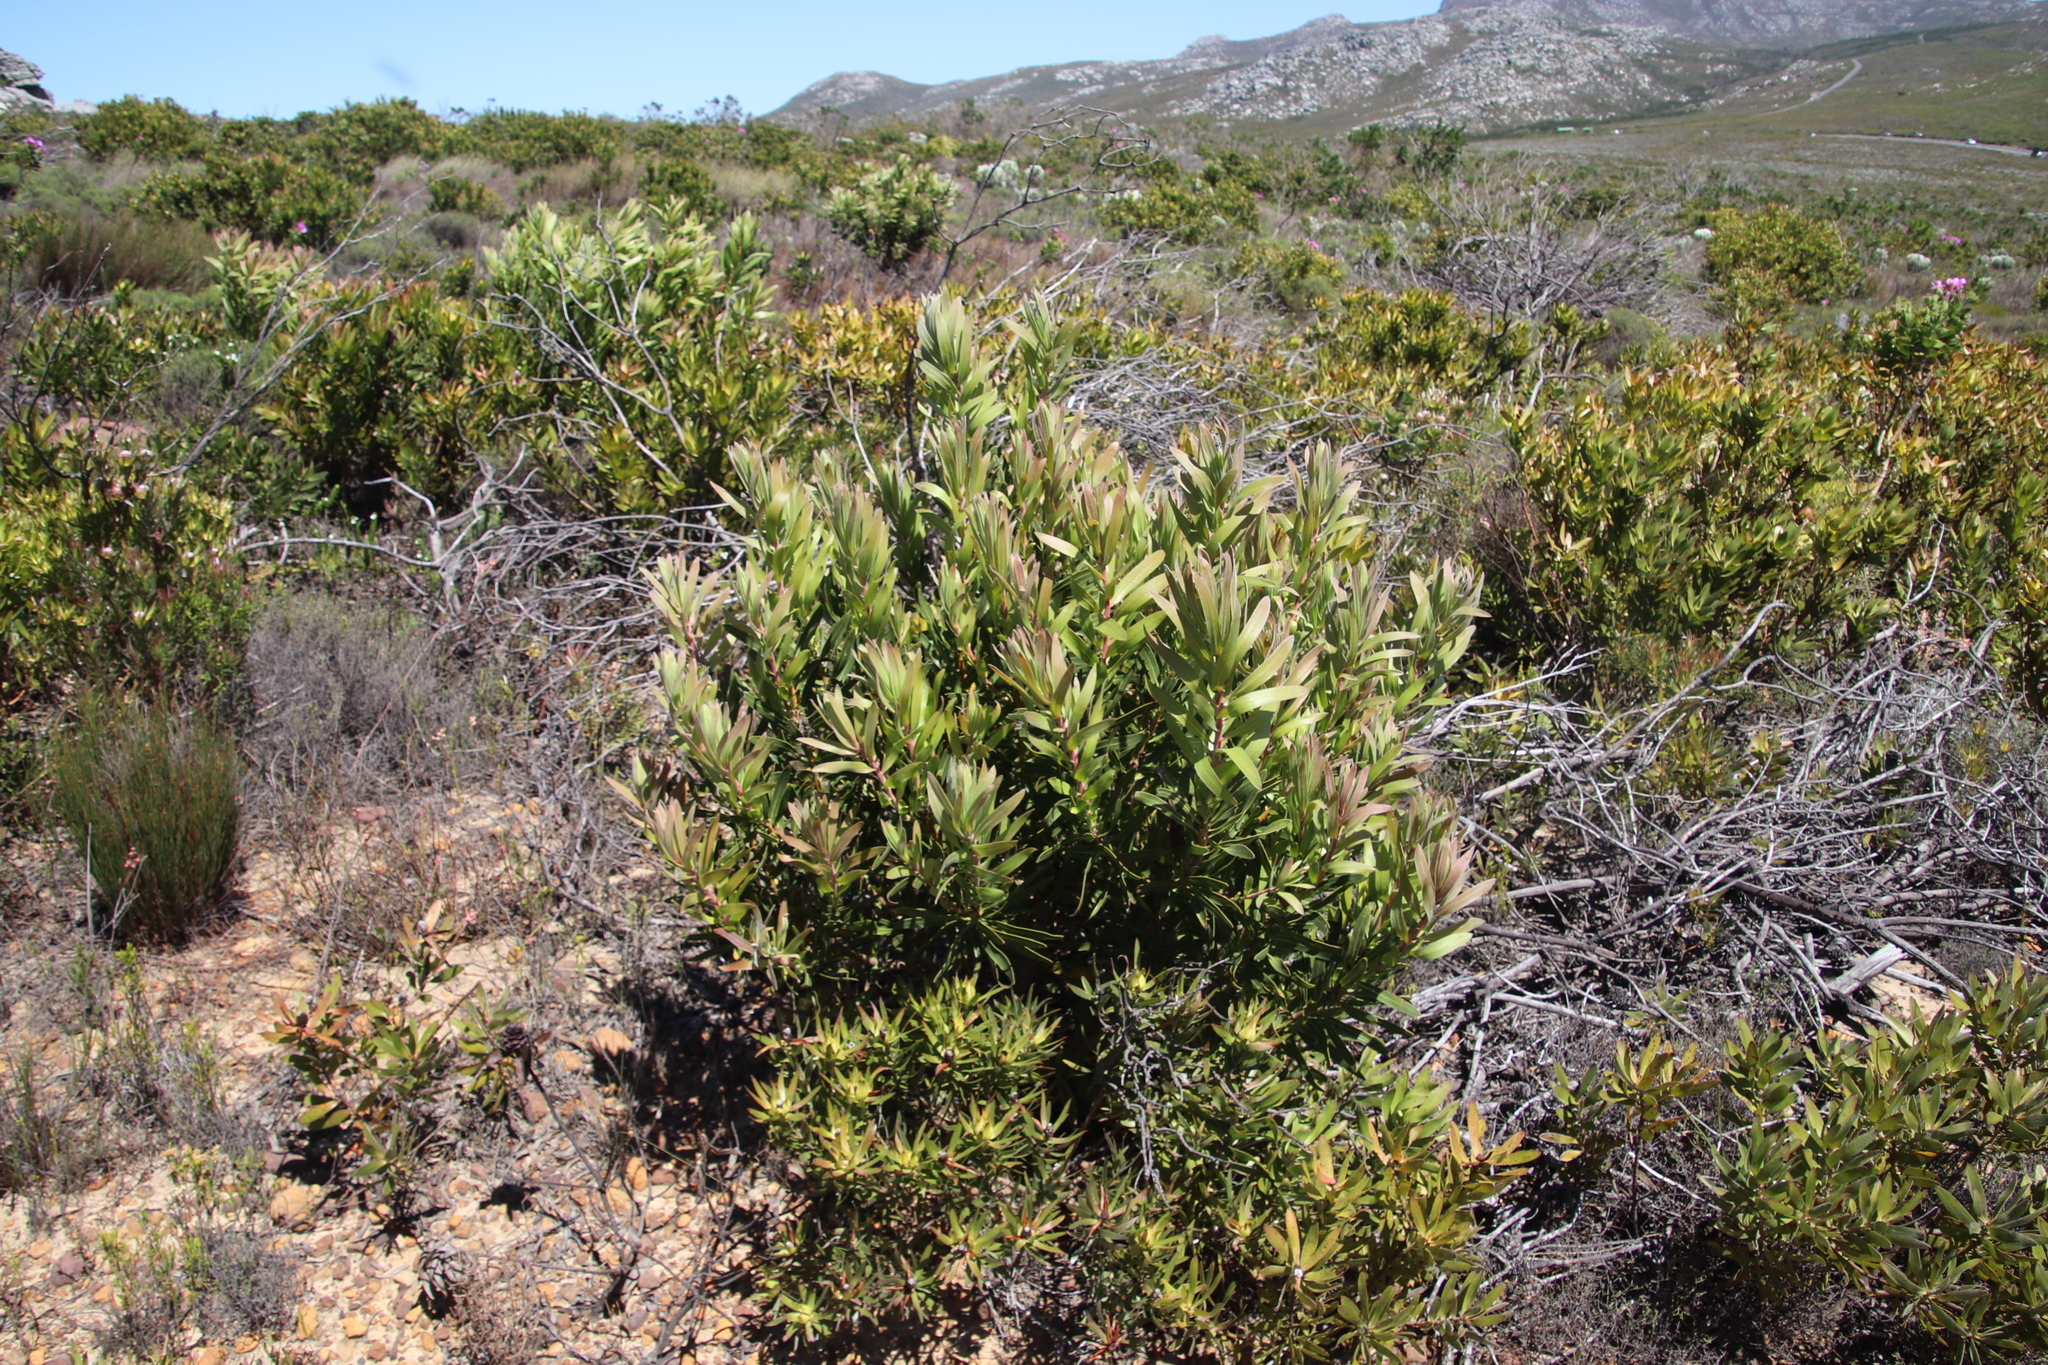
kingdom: Plantae
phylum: Tracheophyta
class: Magnoliopsida
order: Proteales
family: Proteaceae
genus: Protea
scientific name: Protea lepidocarpodendron
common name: Black-bearded protea
